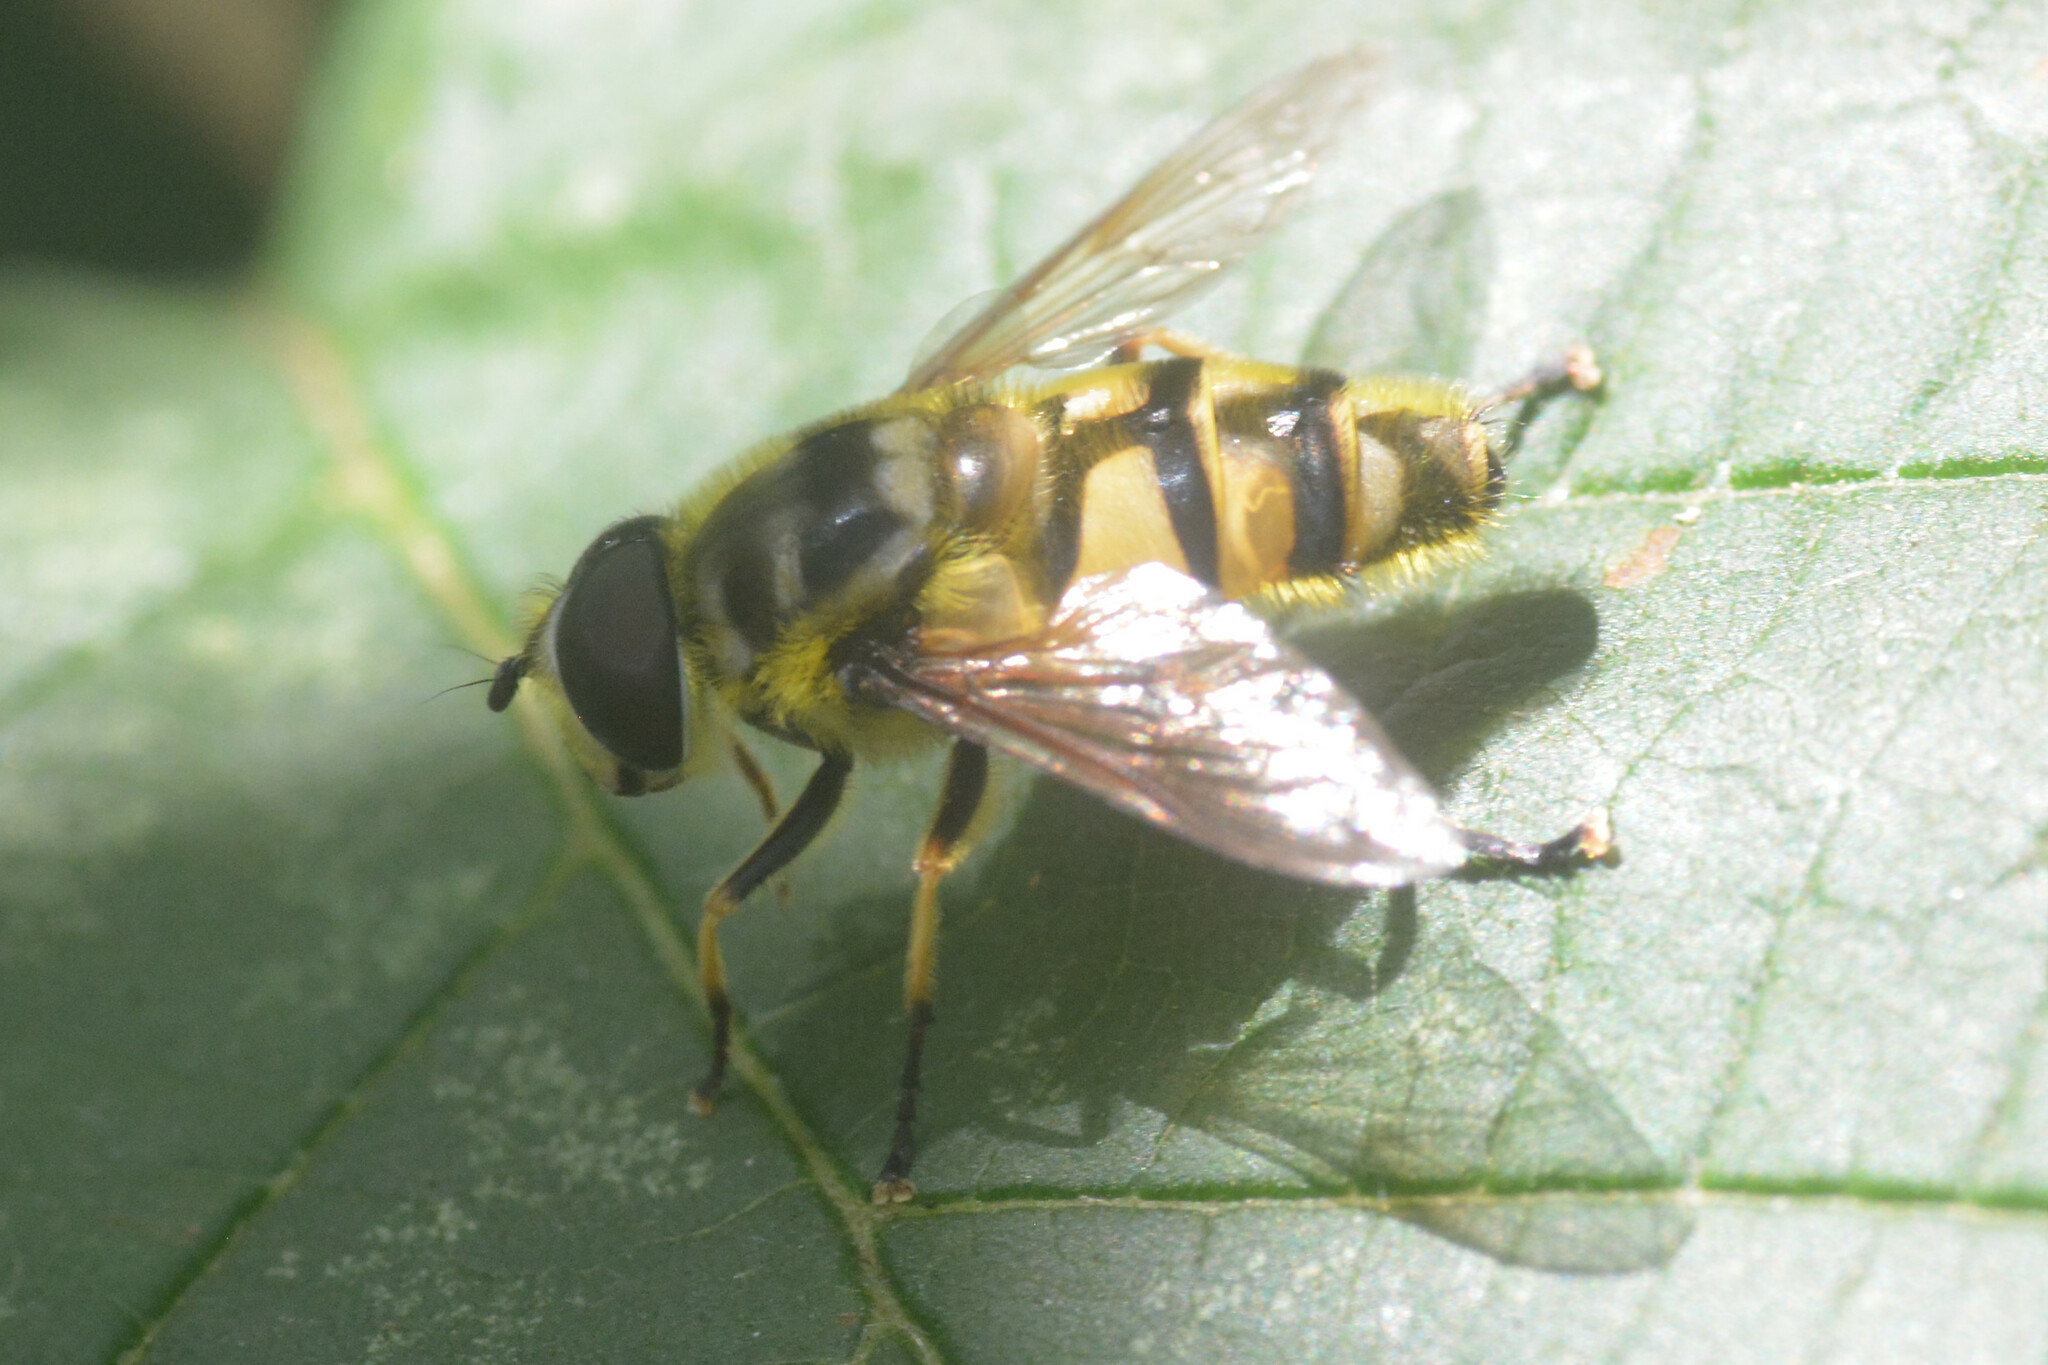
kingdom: Animalia
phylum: Arthropoda
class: Insecta
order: Diptera
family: Syrphidae
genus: Myathropa
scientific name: Myathropa florea
